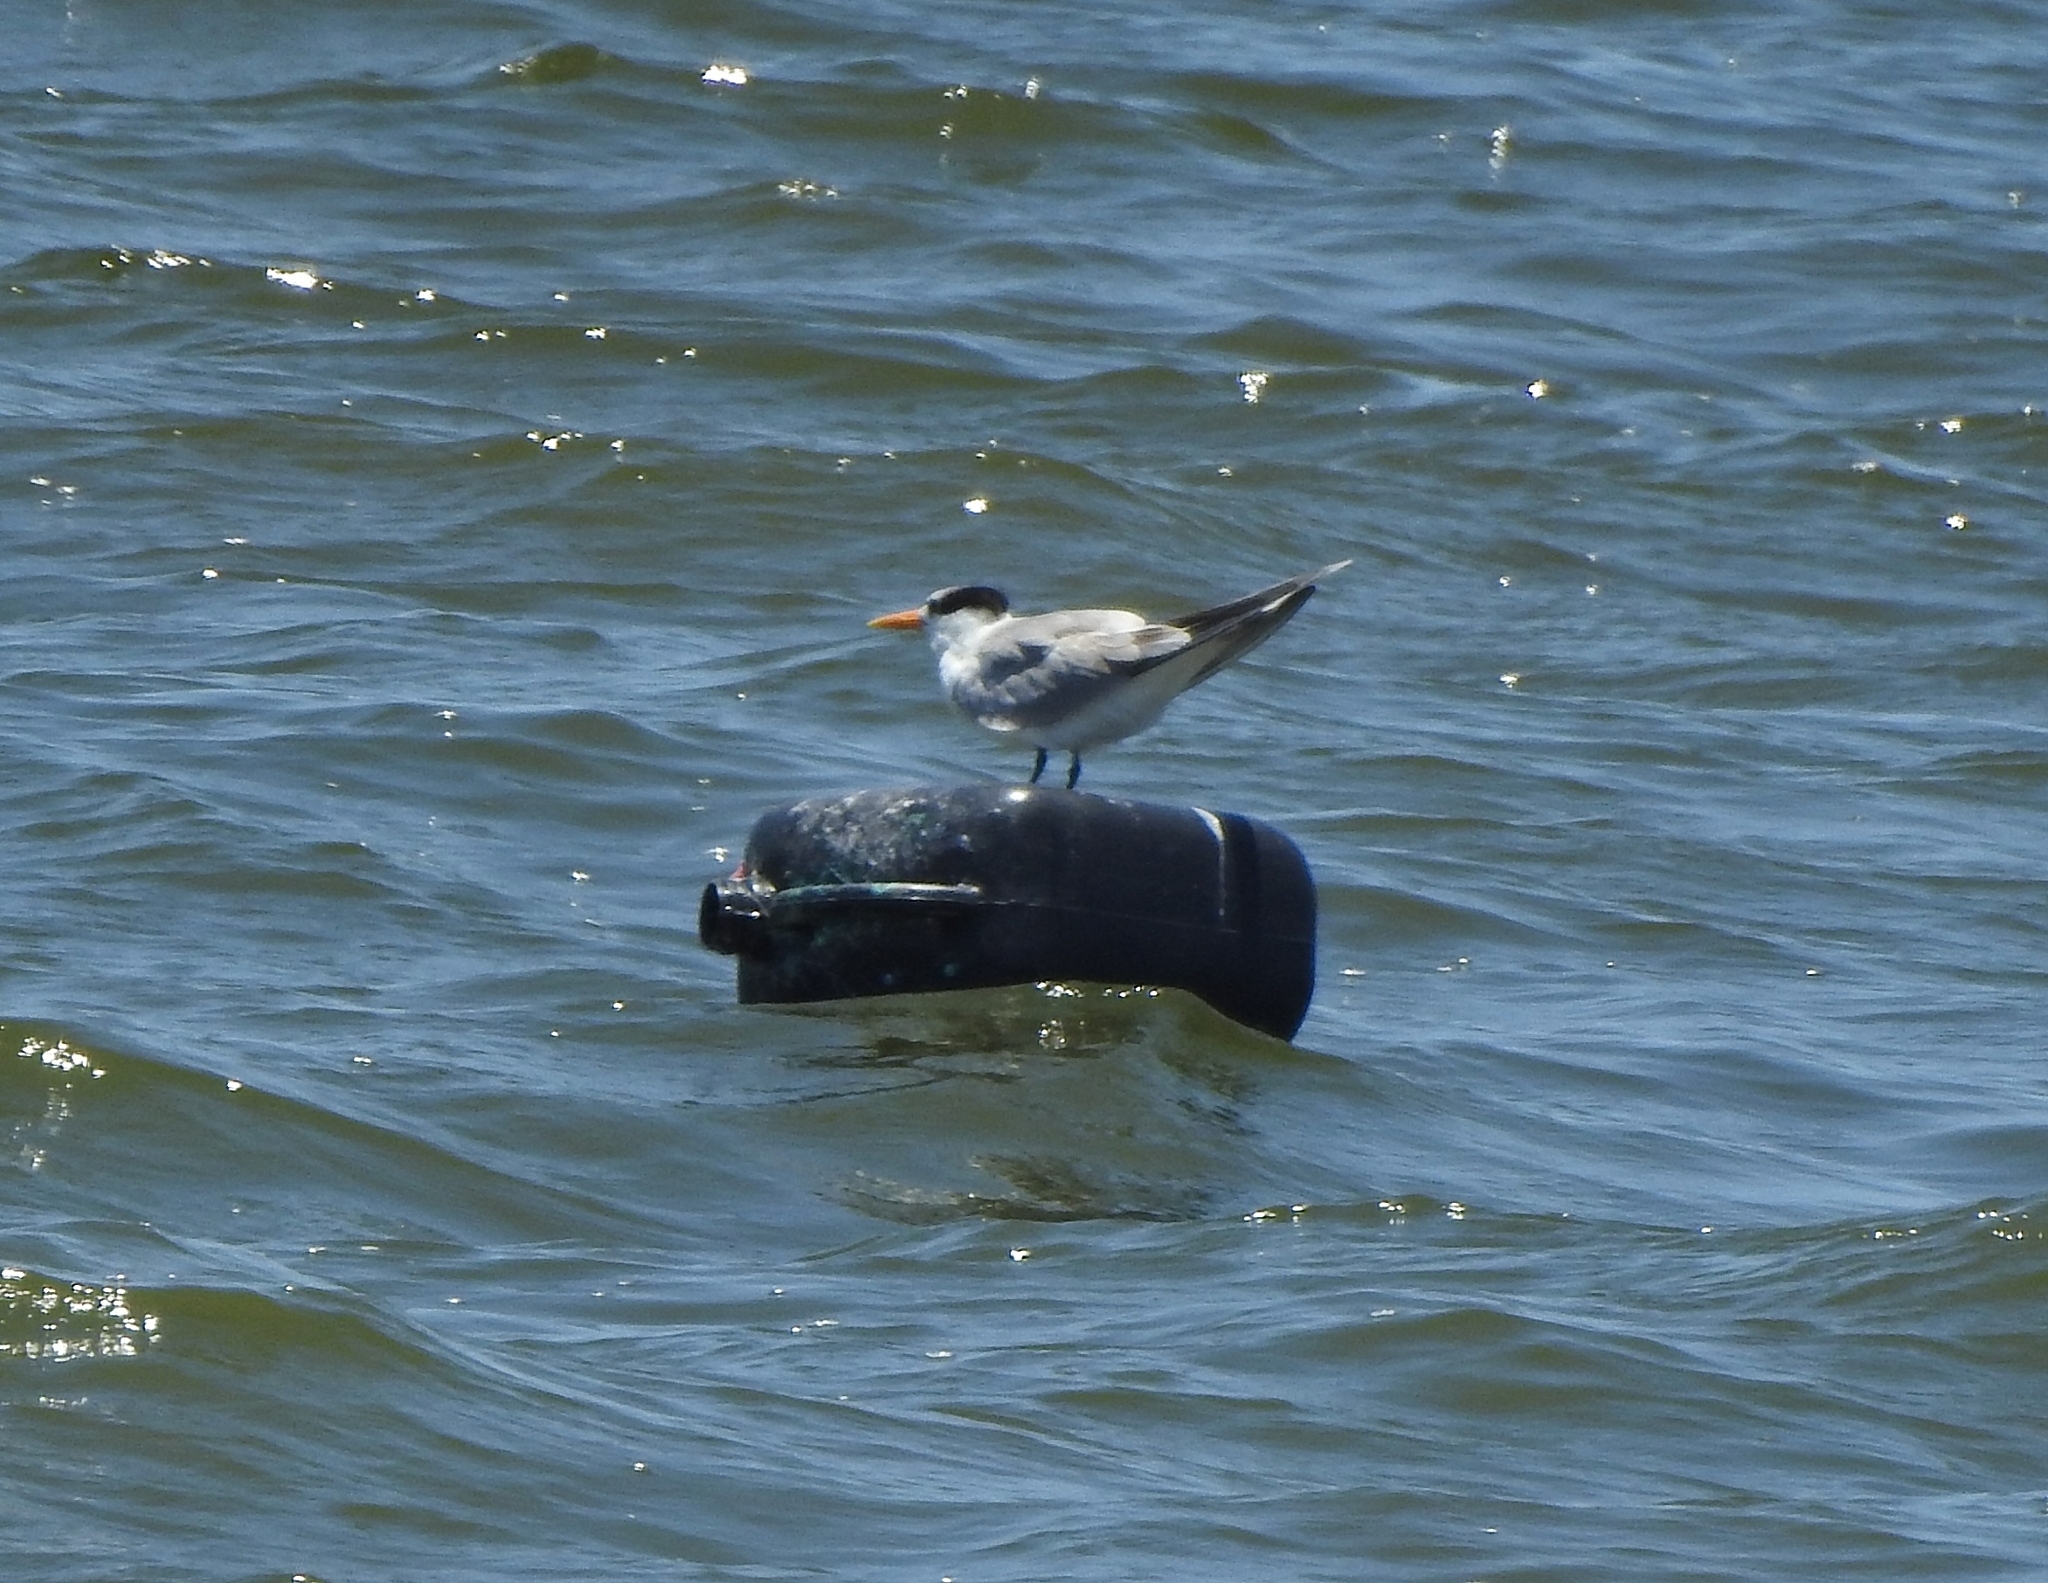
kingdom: Animalia
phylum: Chordata
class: Aves
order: Charadriiformes
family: Laridae
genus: Thalasseus
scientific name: Thalasseus bengalensis
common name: Lesser crested tern
